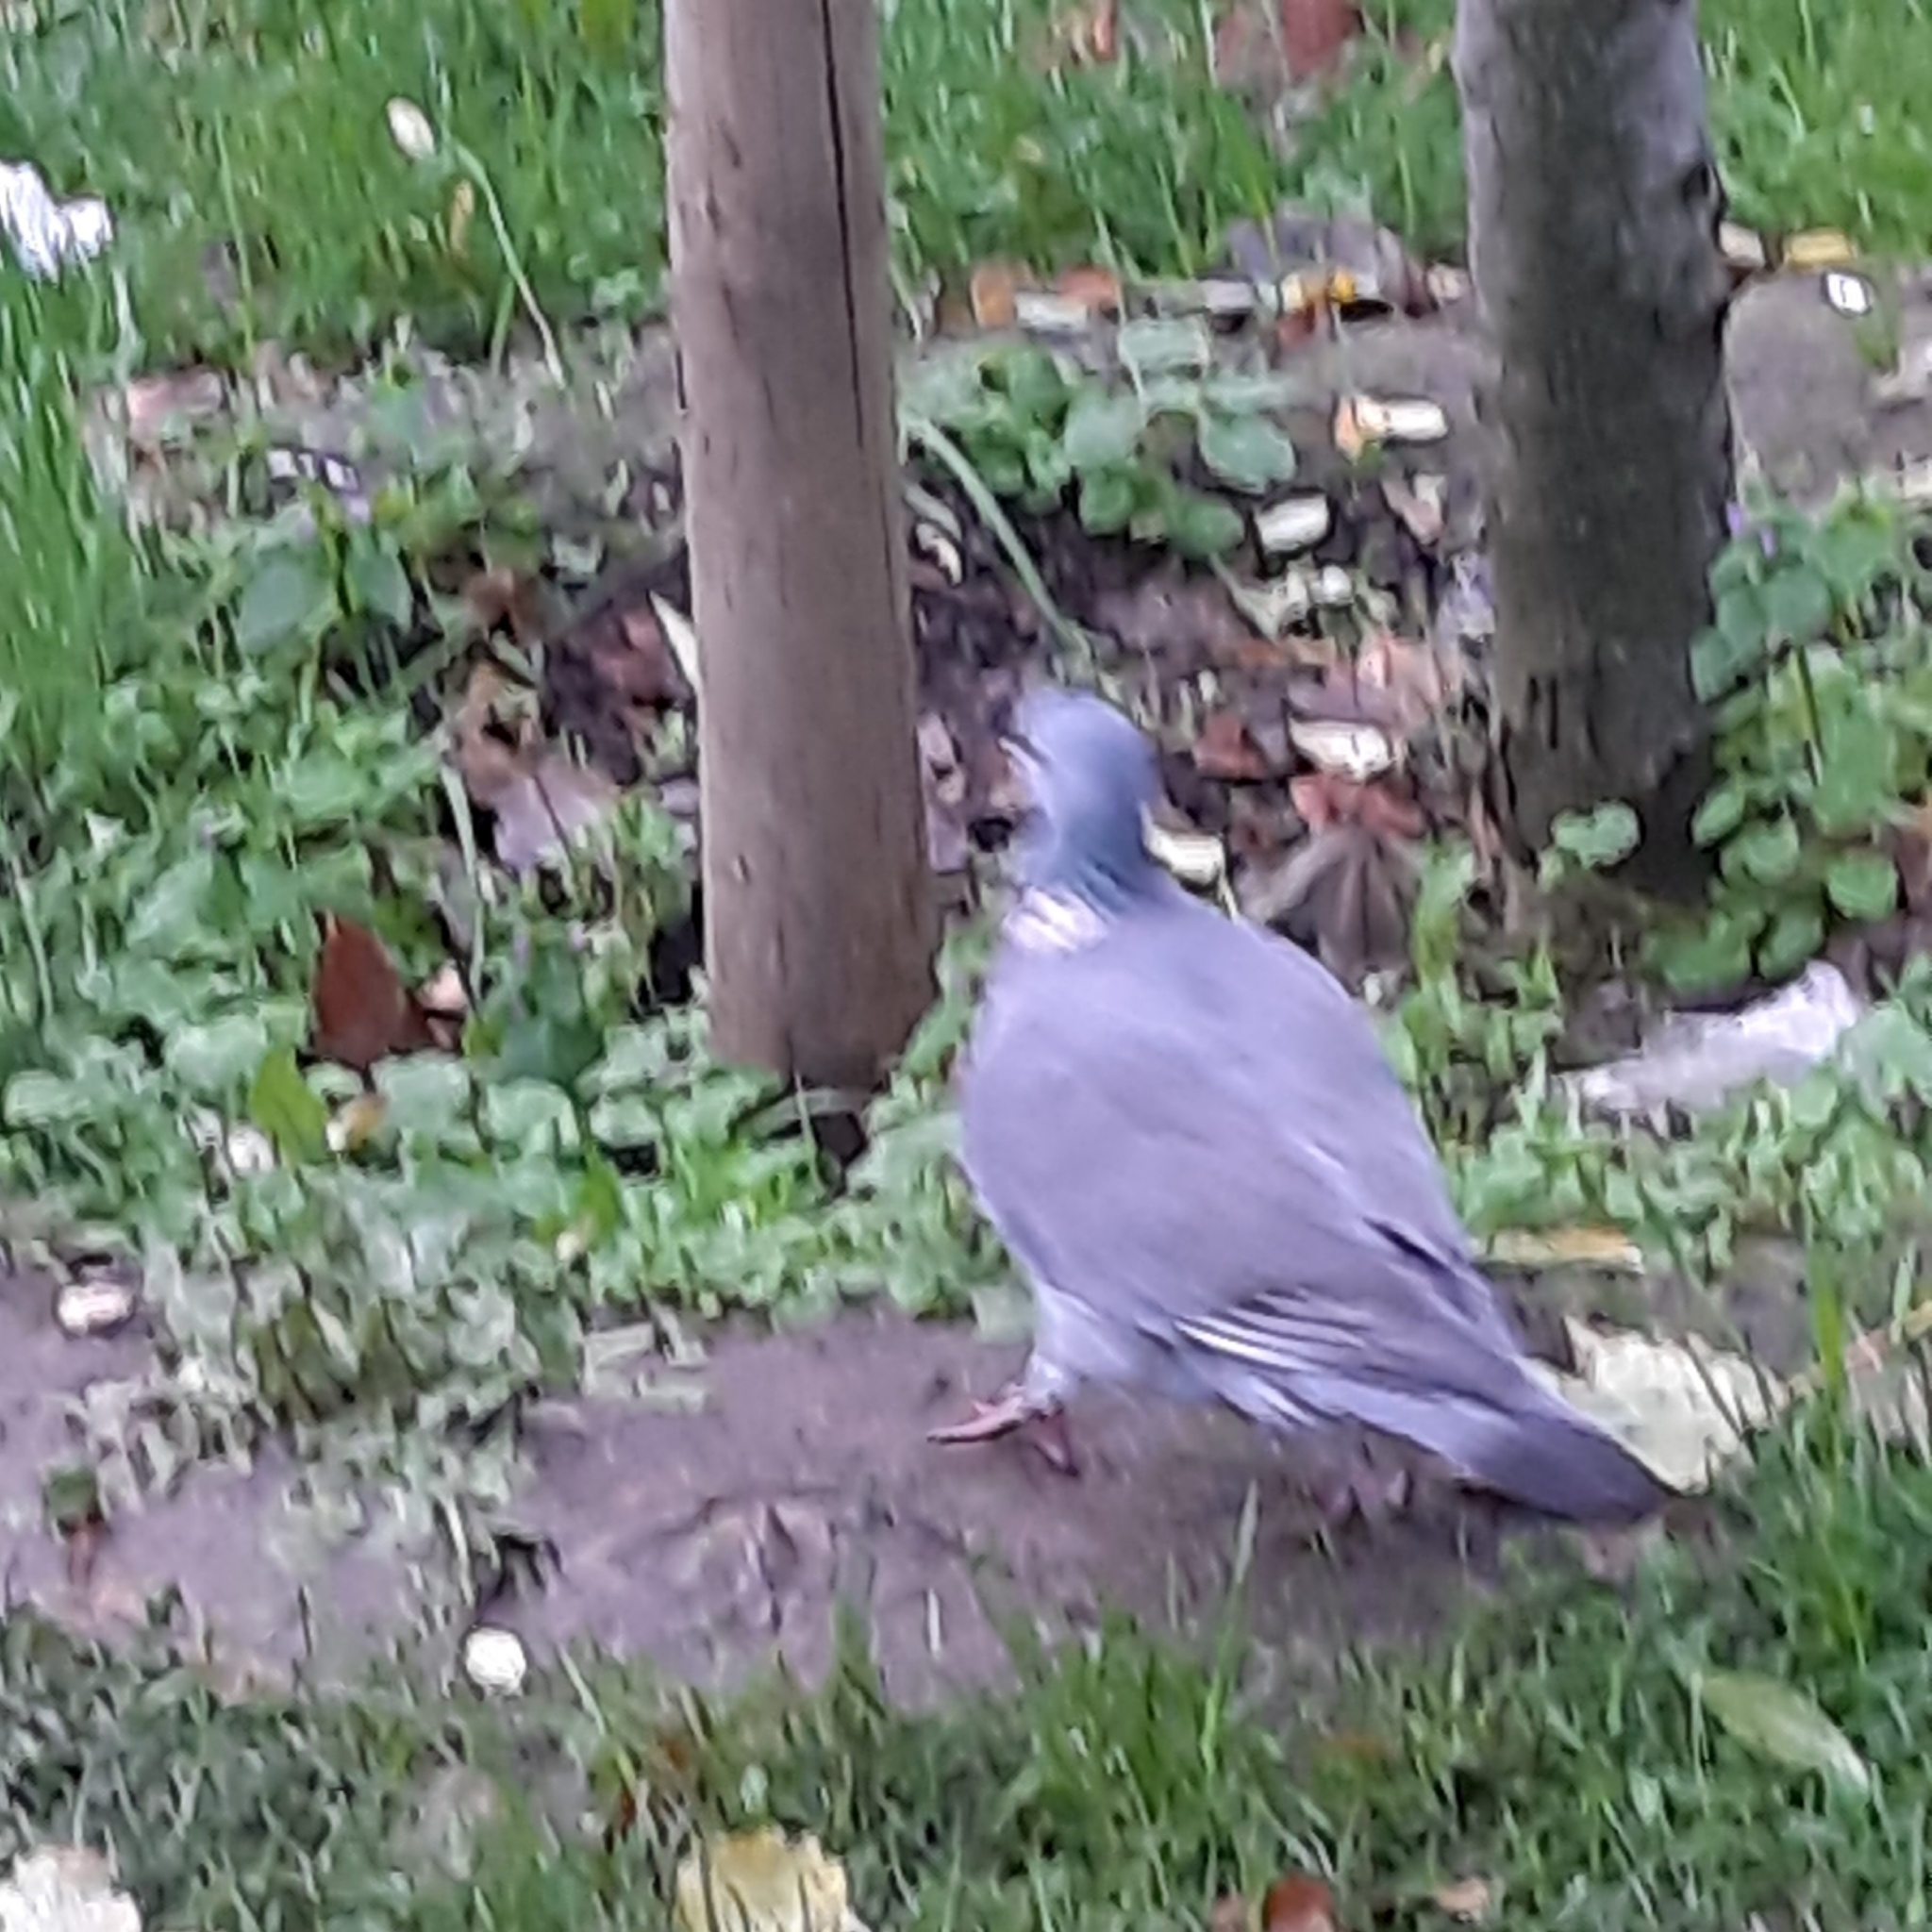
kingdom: Animalia
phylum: Chordata
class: Aves
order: Columbiformes
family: Columbidae
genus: Columba
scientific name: Columba palumbus
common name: Common wood pigeon
